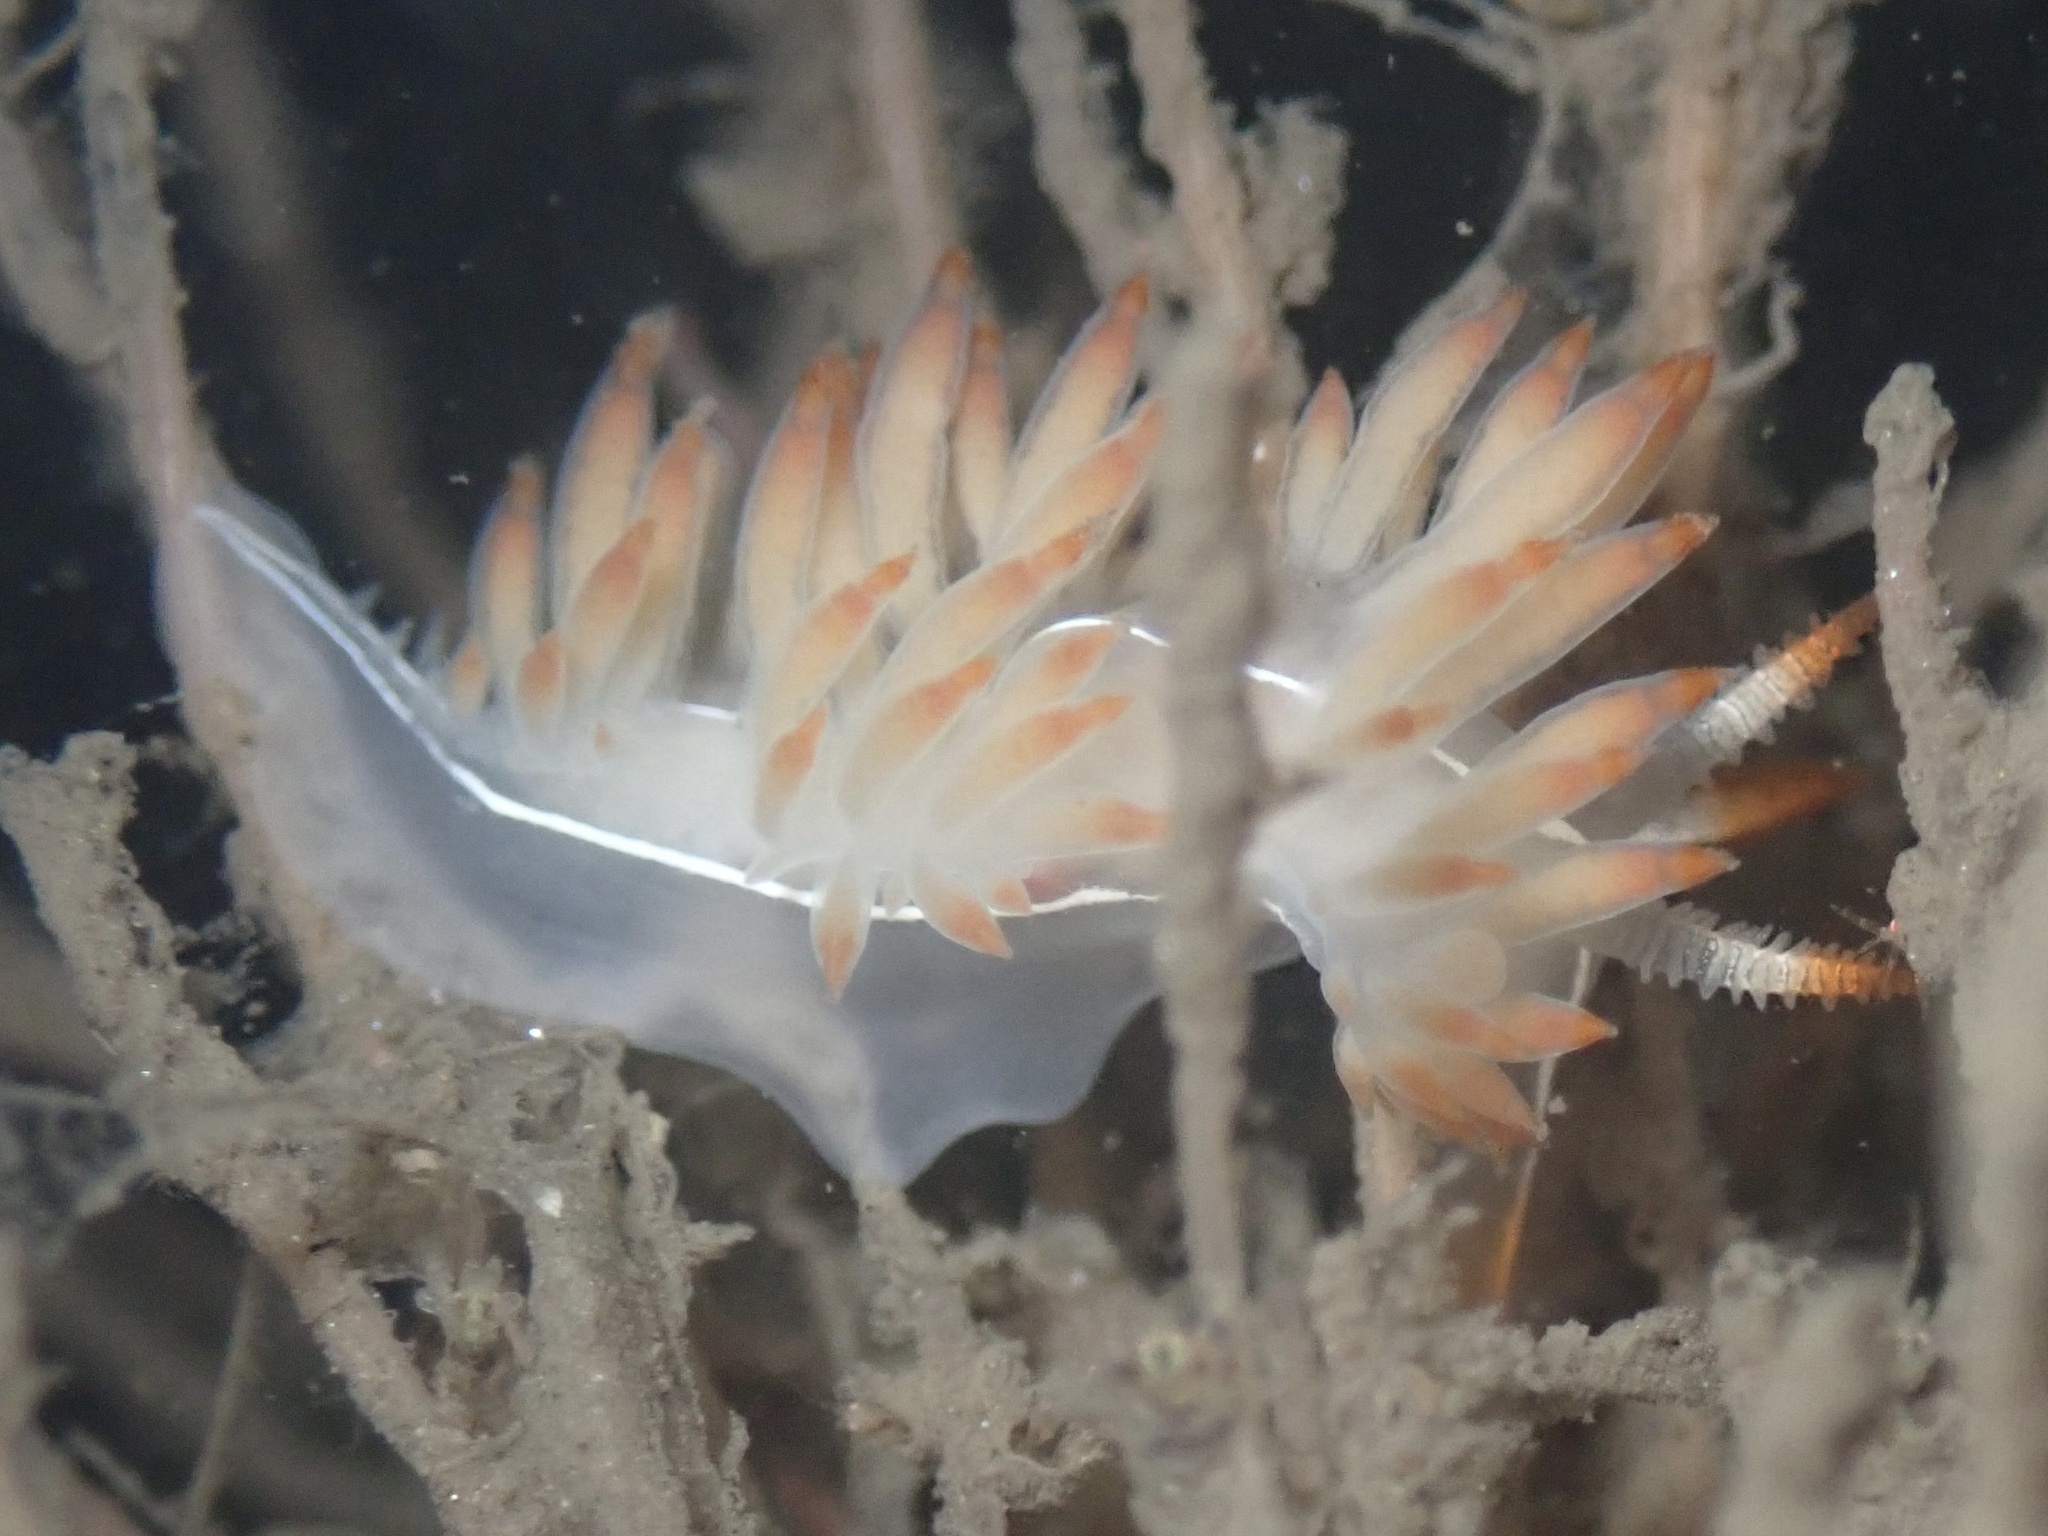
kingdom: Animalia
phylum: Mollusca
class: Gastropoda
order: Nudibranchia
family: Coryphellidae
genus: Coryphella
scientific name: Coryphella trilineata
